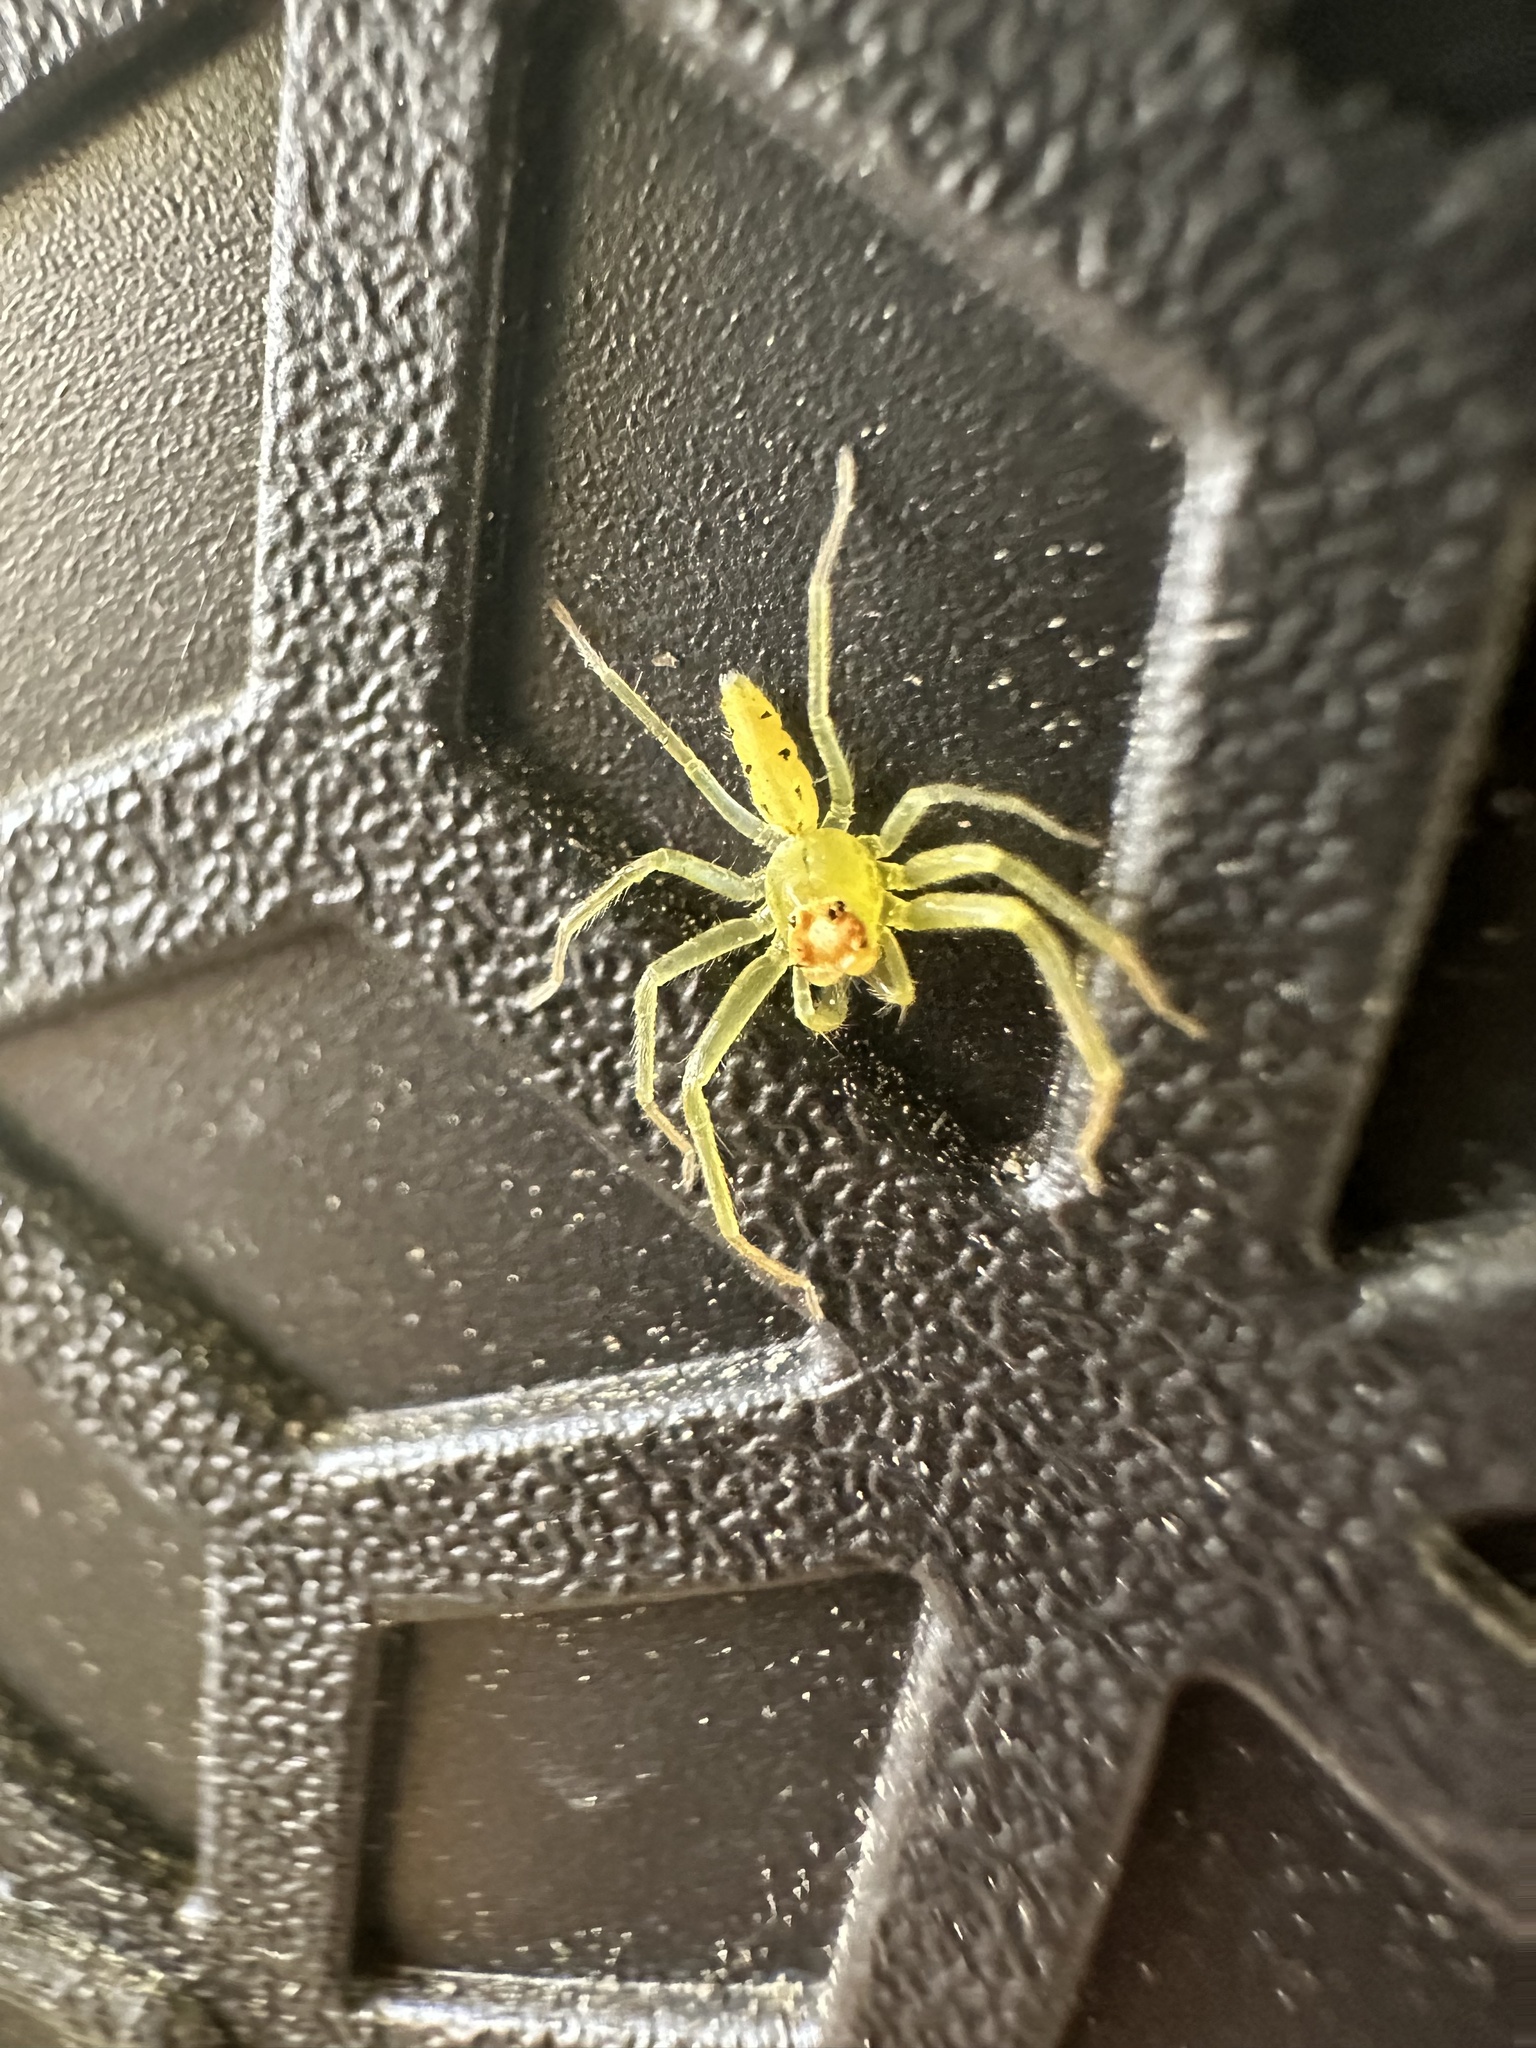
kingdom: Animalia
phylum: Arthropoda
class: Arachnida
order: Araneae
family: Salticidae
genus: Lyssomanes
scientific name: Lyssomanes viridis
